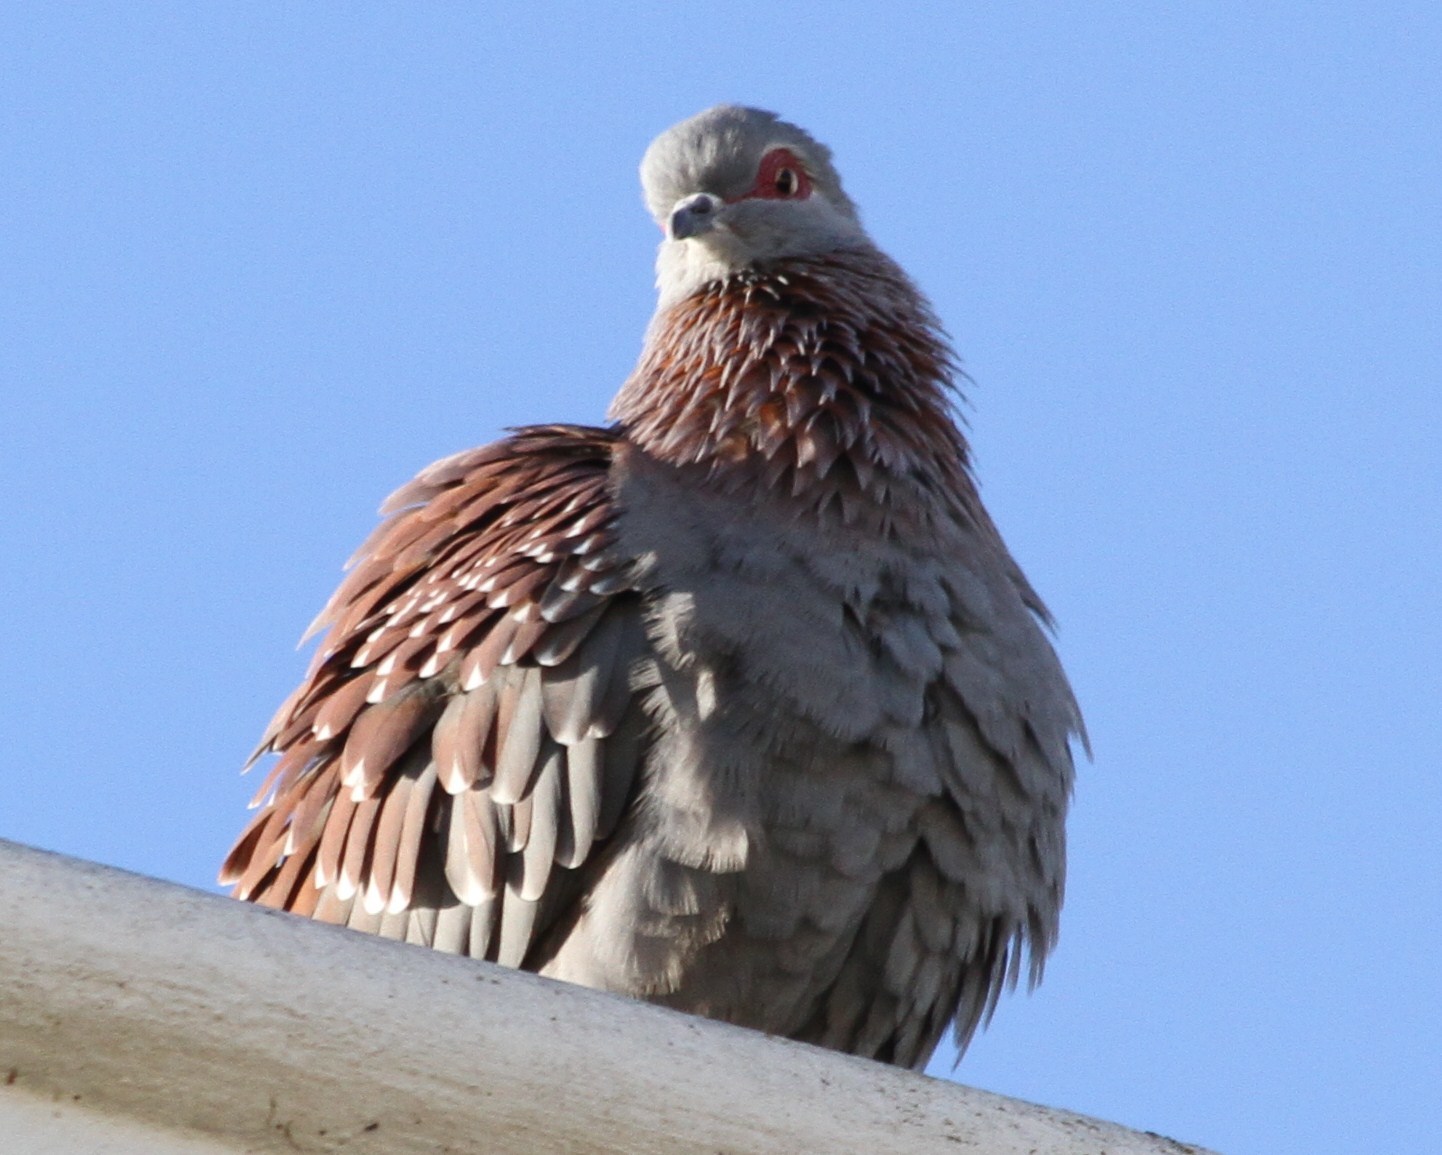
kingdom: Animalia
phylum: Chordata
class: Aves
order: Columbiformes
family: Columbidae
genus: Columba
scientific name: Columba guinea
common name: Speckled pigeon
